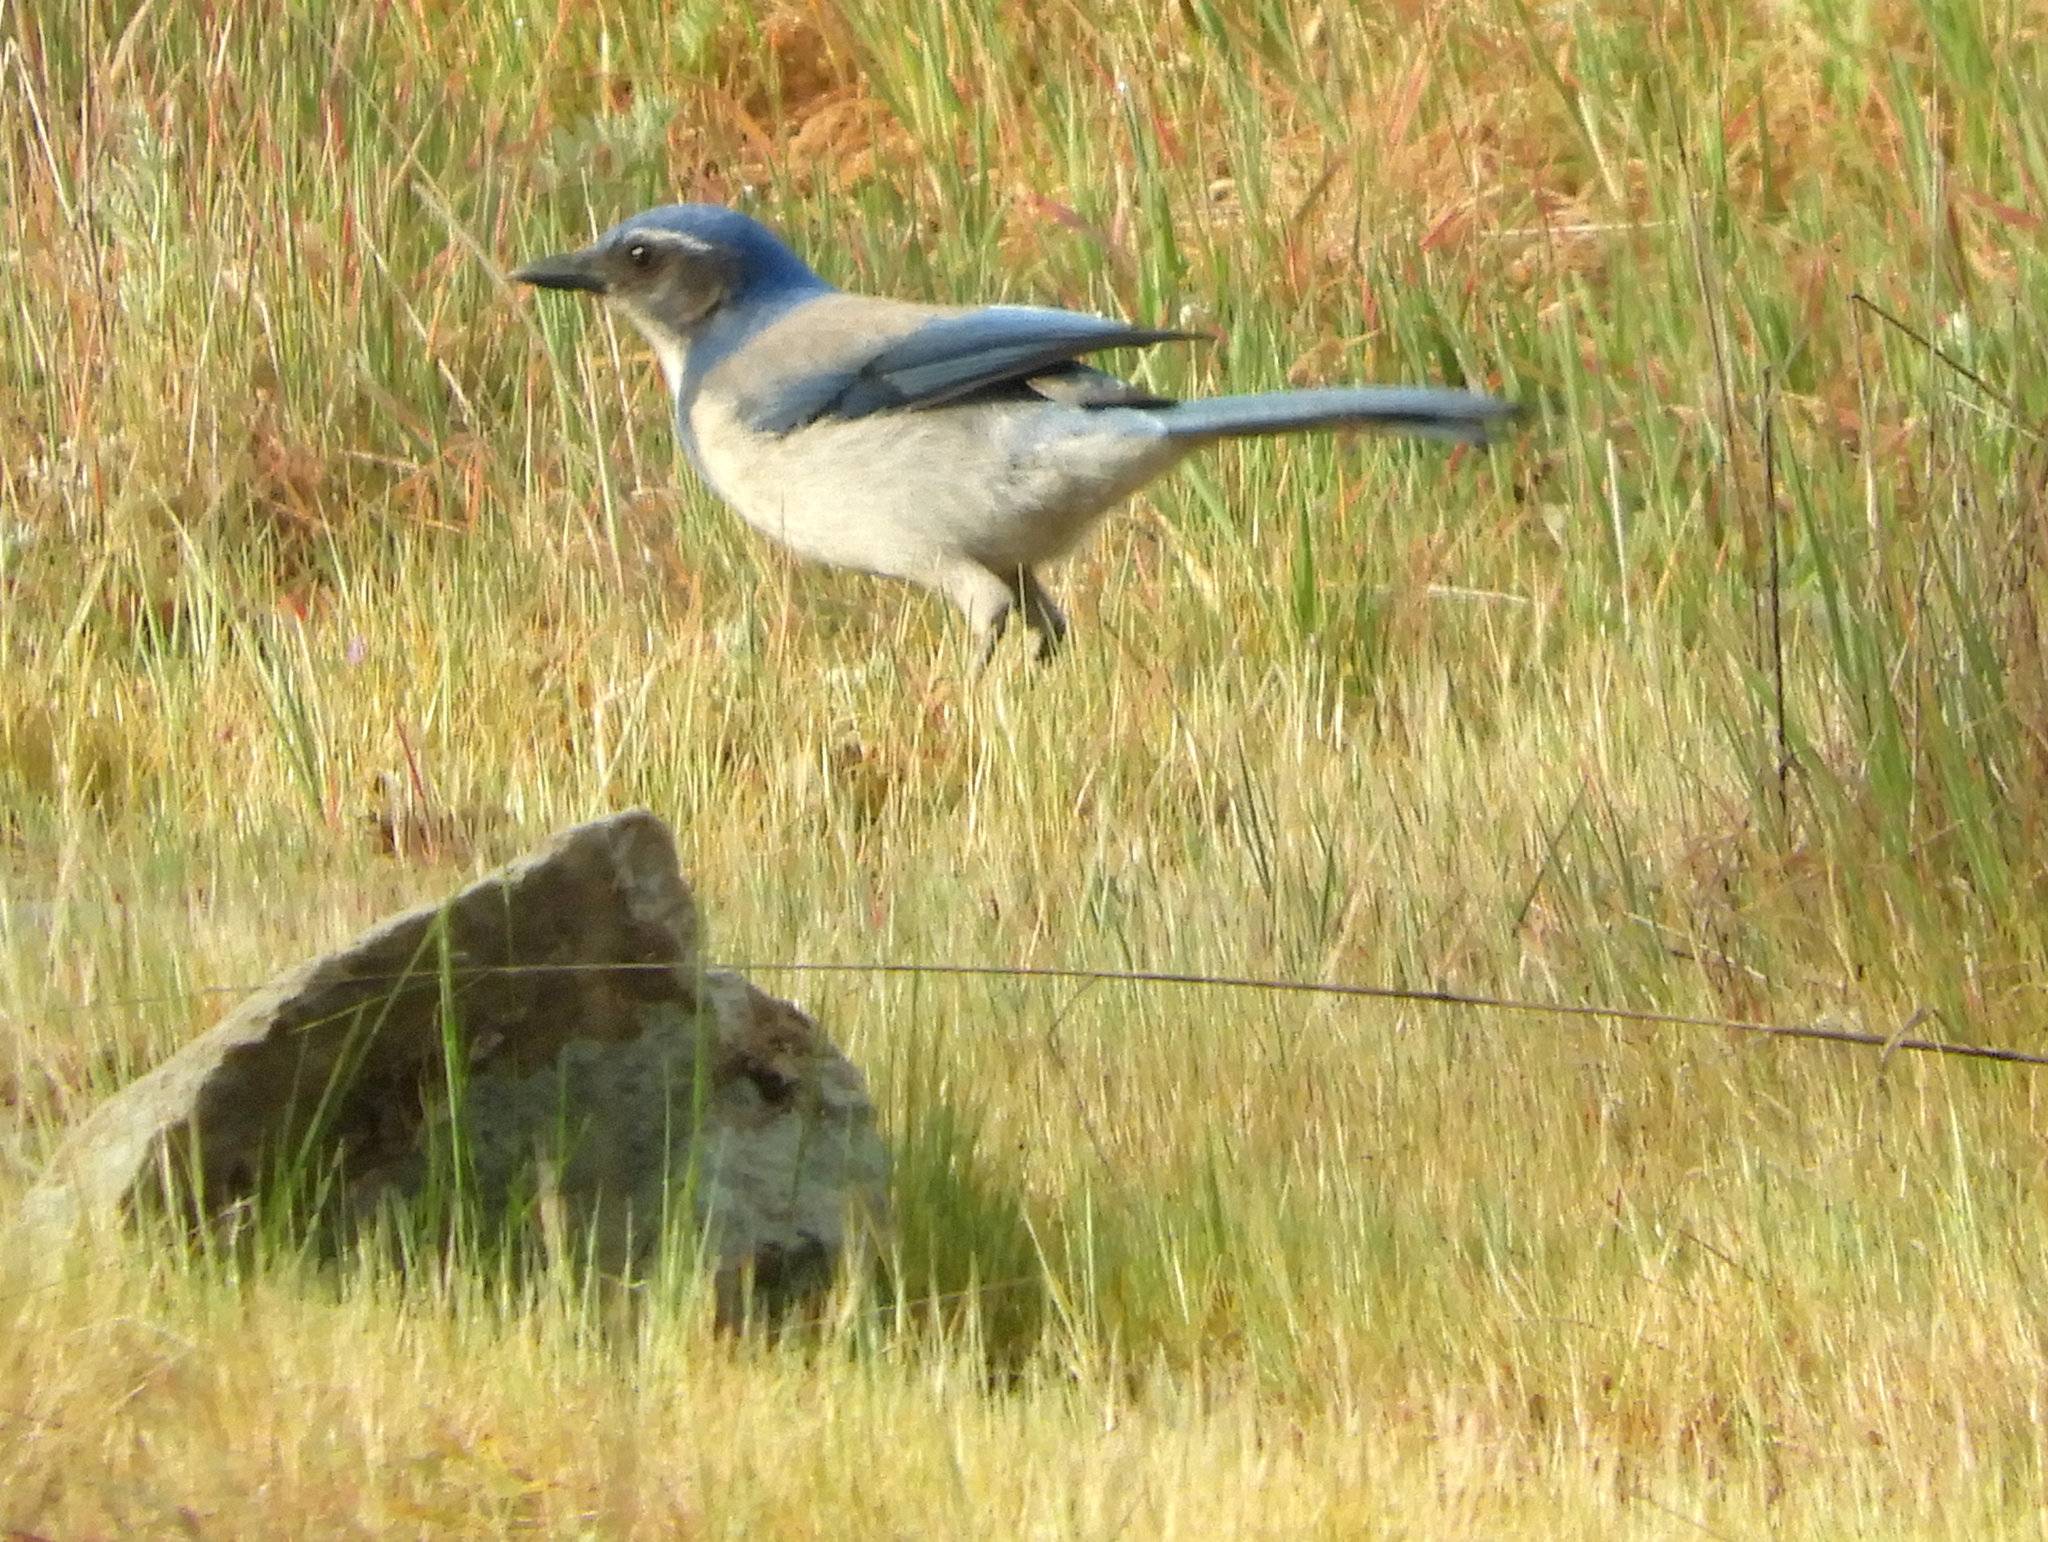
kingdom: Animalia
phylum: Chordata
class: Aves
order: Passeriformes
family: Corvidae
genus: Aphelocoma
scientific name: Aphelocoma californica
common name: California scrub-jay
